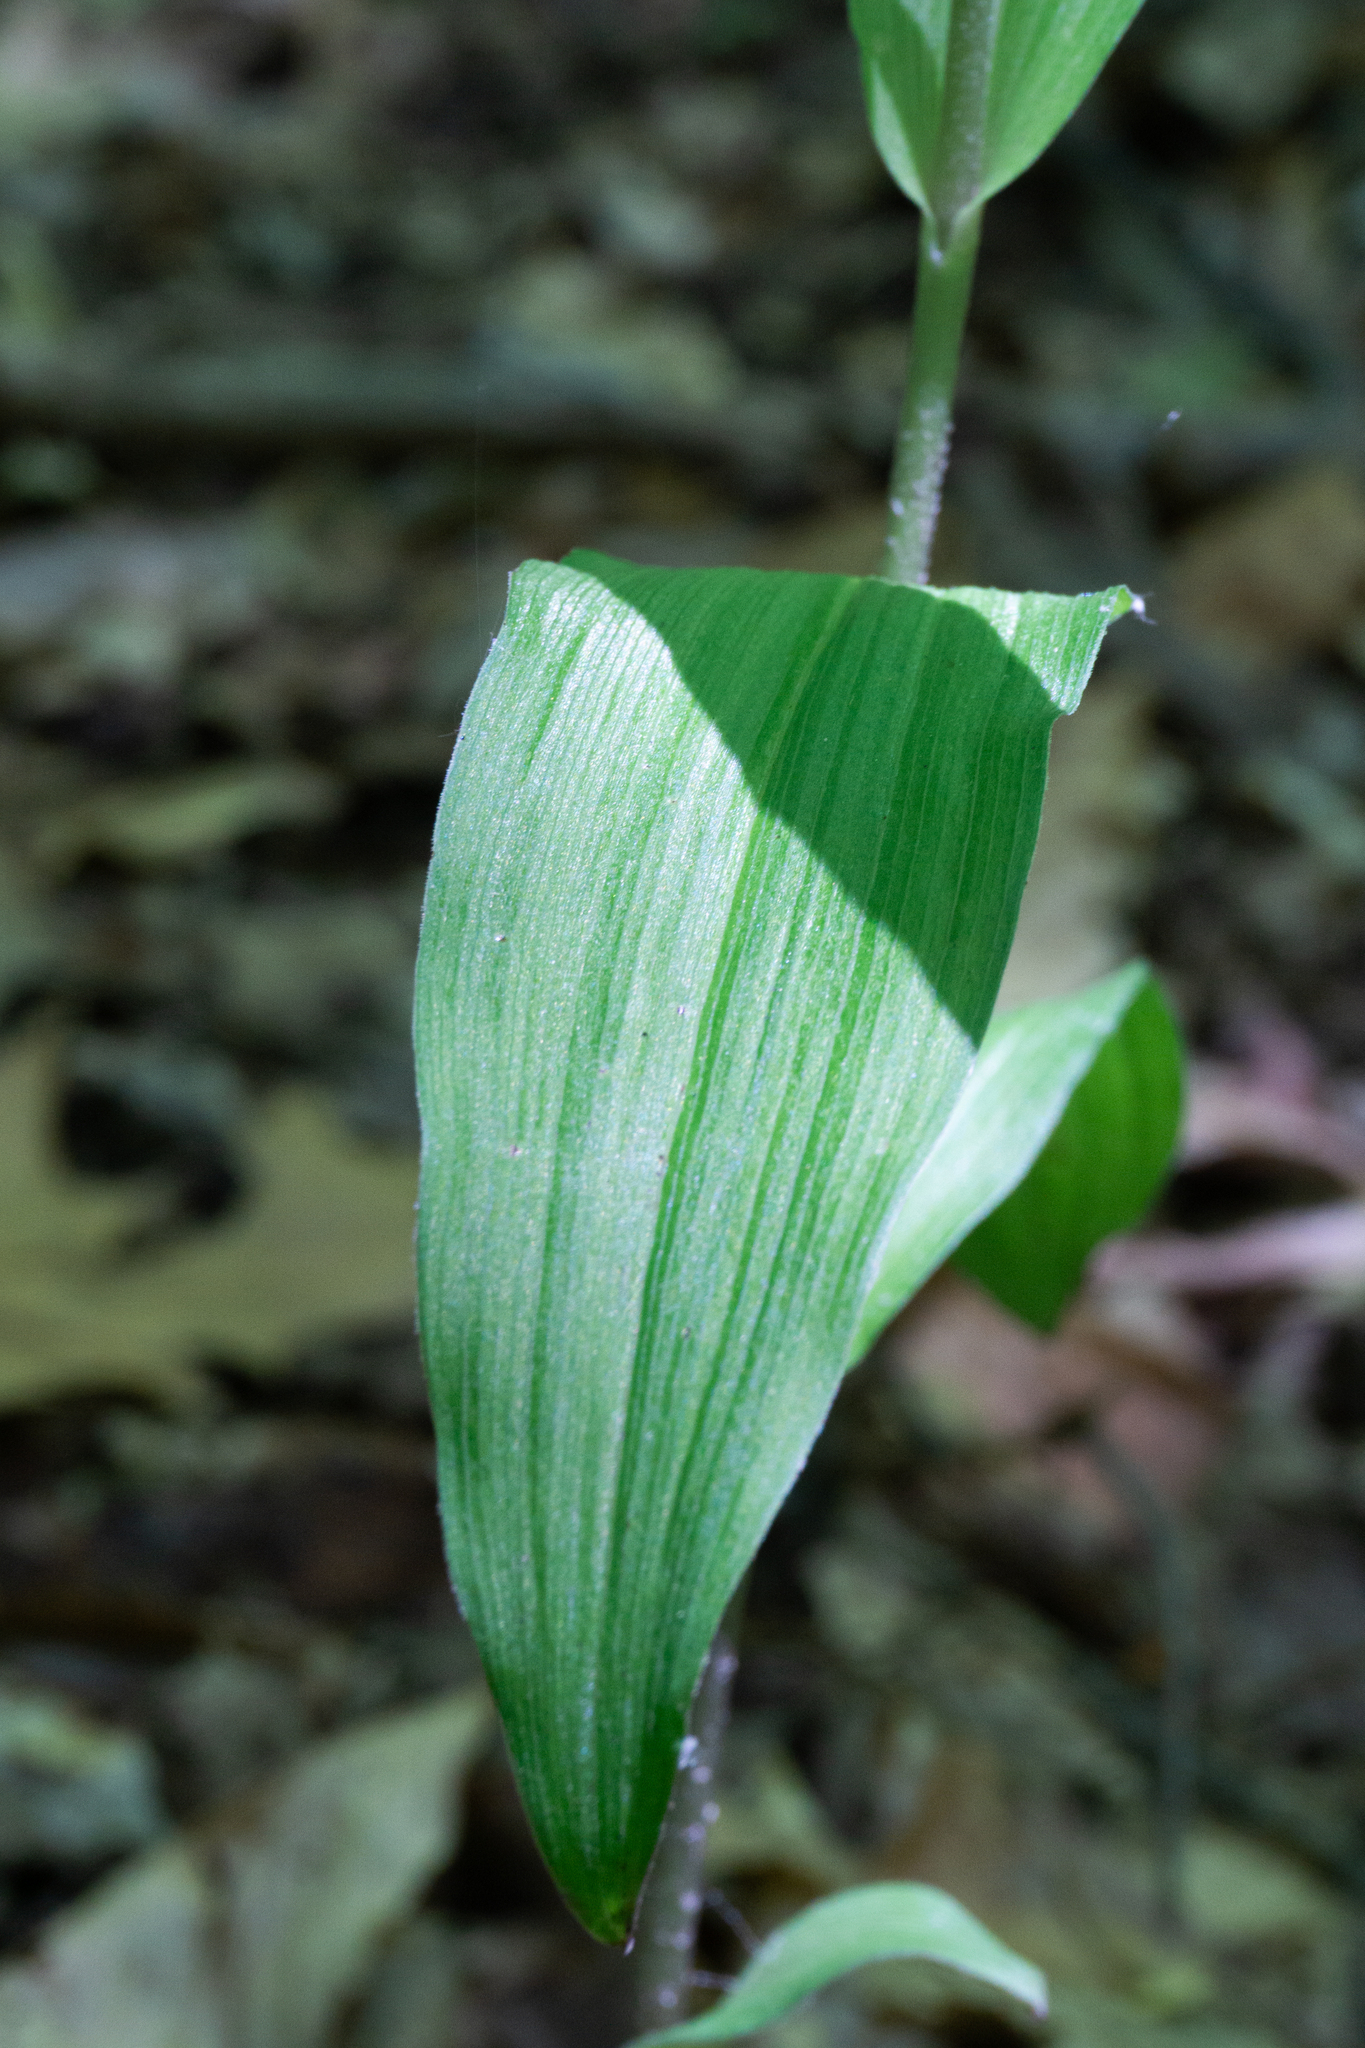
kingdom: Plantae
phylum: Tracheophyta
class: Liliopsida
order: Asparagales
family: Orchidaceae
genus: Epipactis
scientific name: Epipactis helleborine
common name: Broad-leaved helleborine
